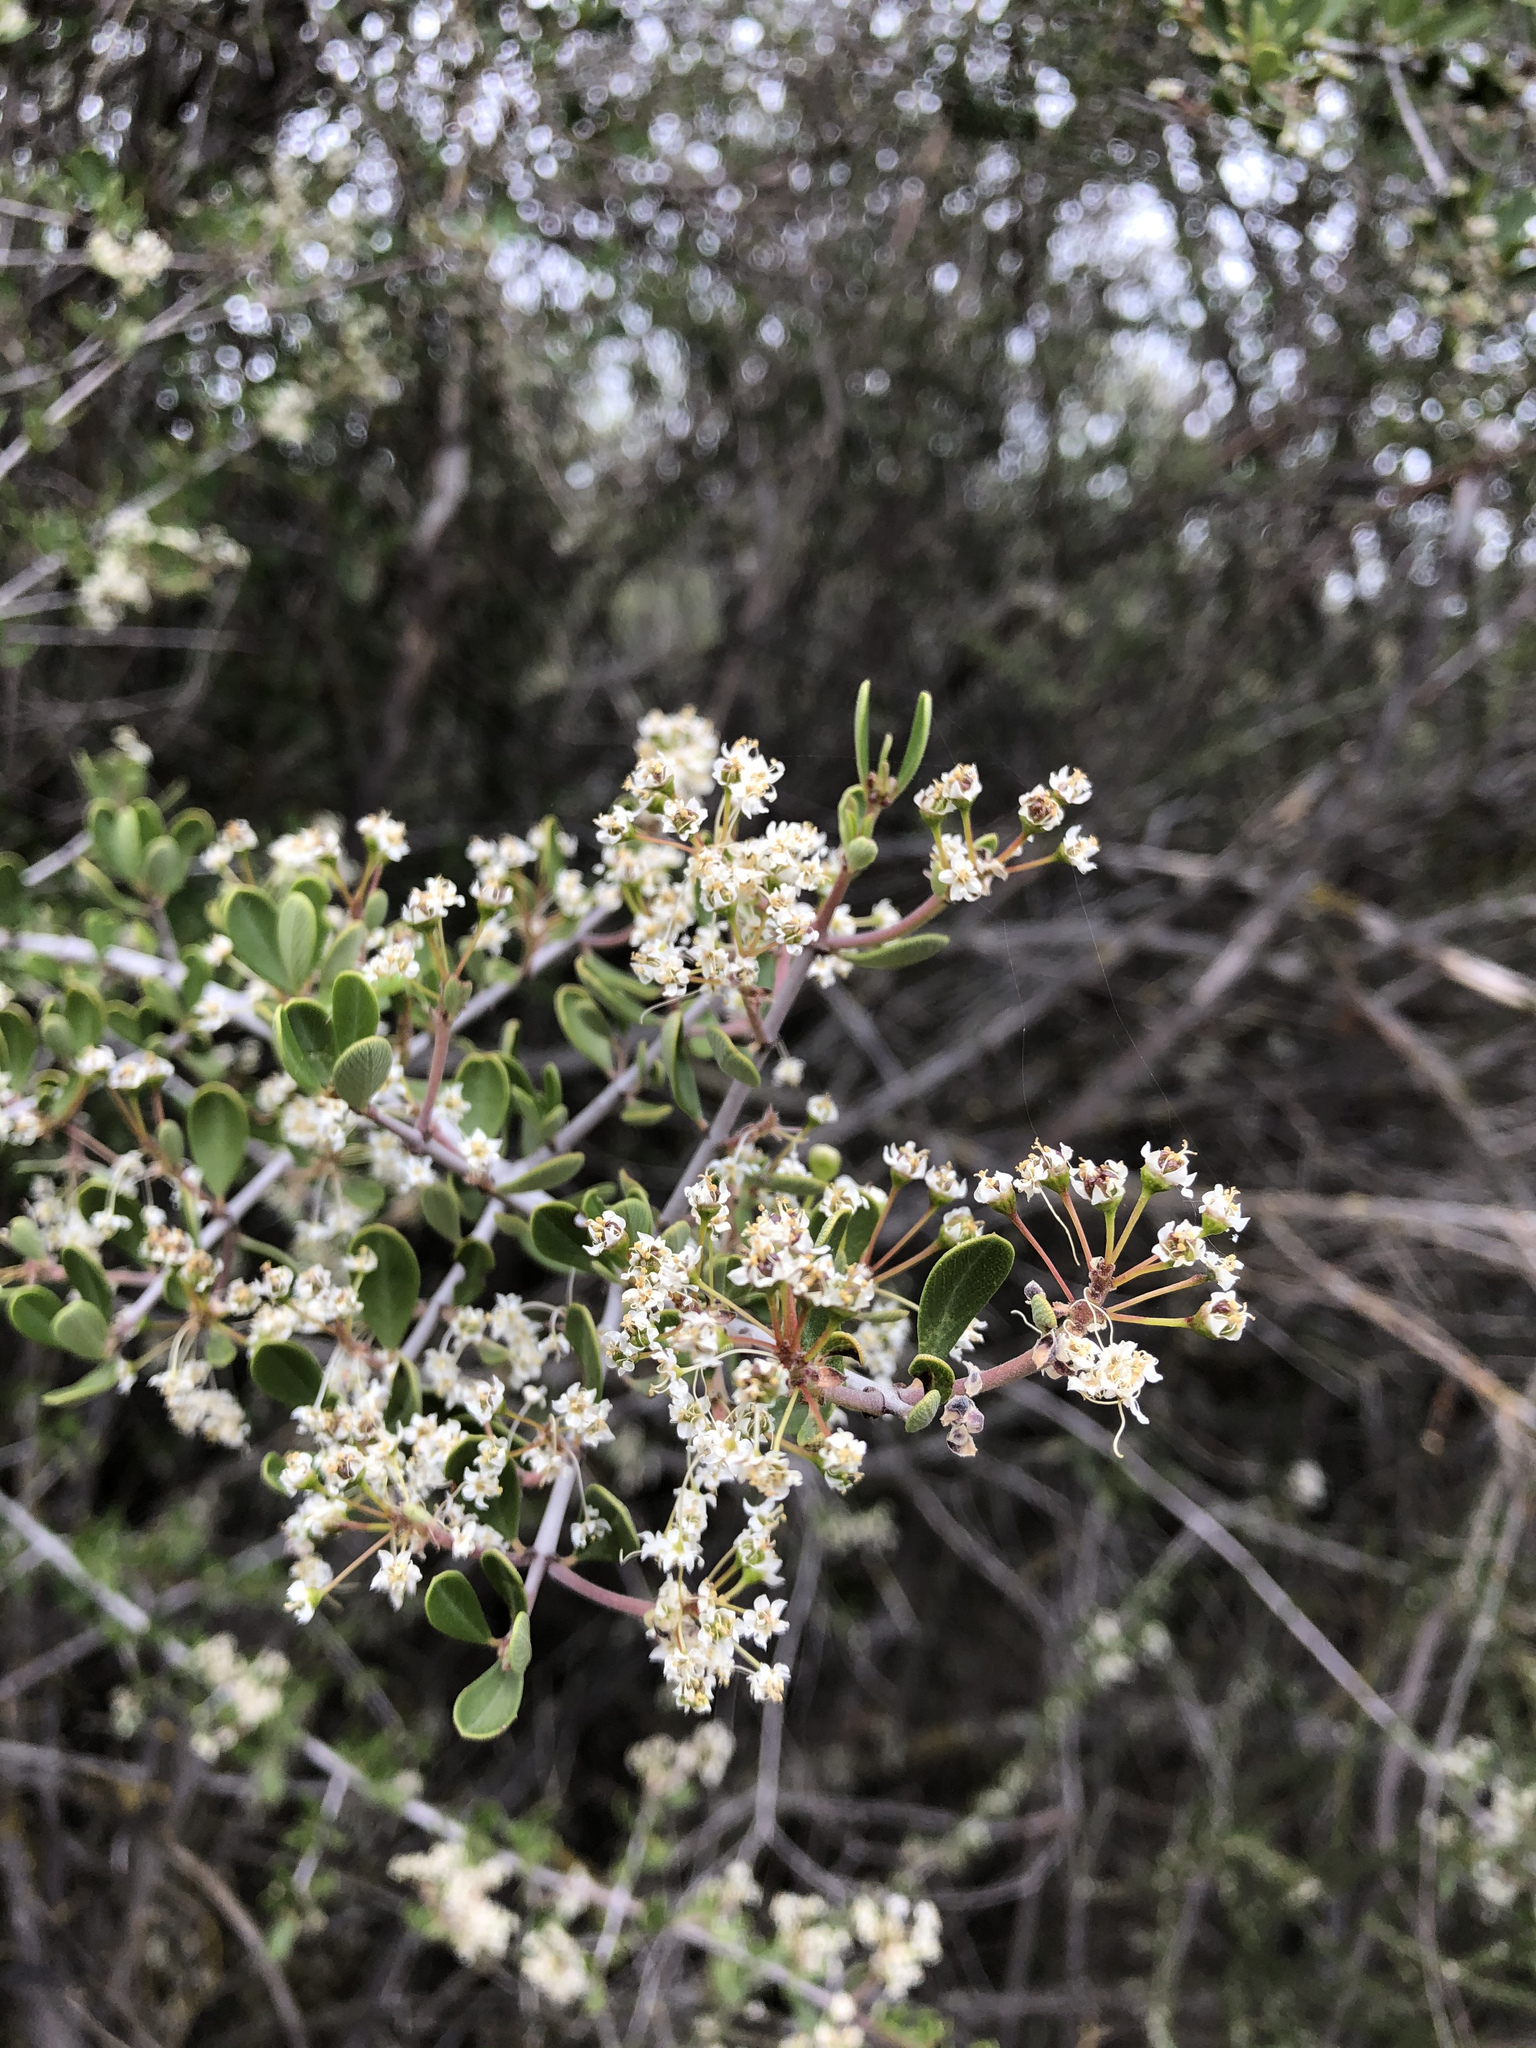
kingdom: Plantae
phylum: Tracheophyta
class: Magnoliopsida
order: Rosales
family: Rhamnaceae
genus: Ceanothus
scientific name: Ceanothus cuneatus
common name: Cuneate ceanothus
